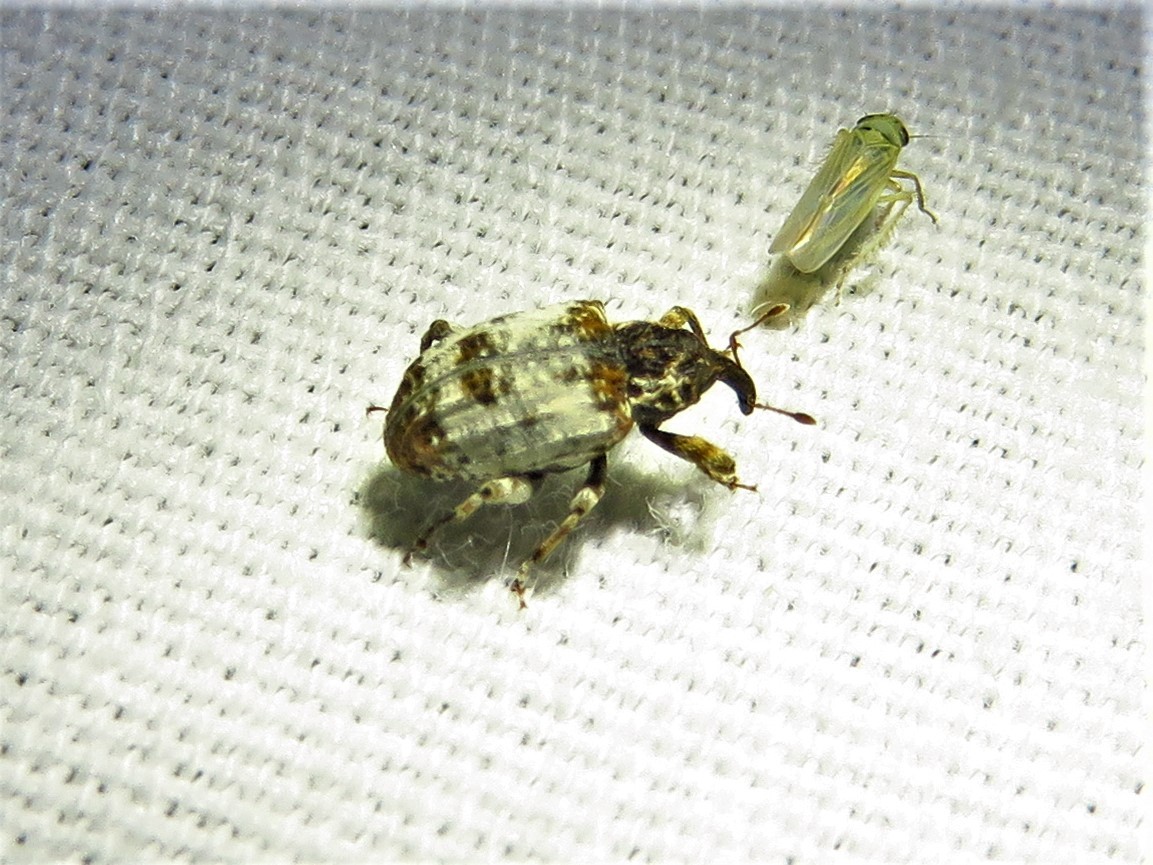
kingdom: Animalia
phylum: Arthropoda
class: Insecta
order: Coleoptera
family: Curculionidae
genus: Conotrachelus
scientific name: Conotrachelus leucophaeatus
